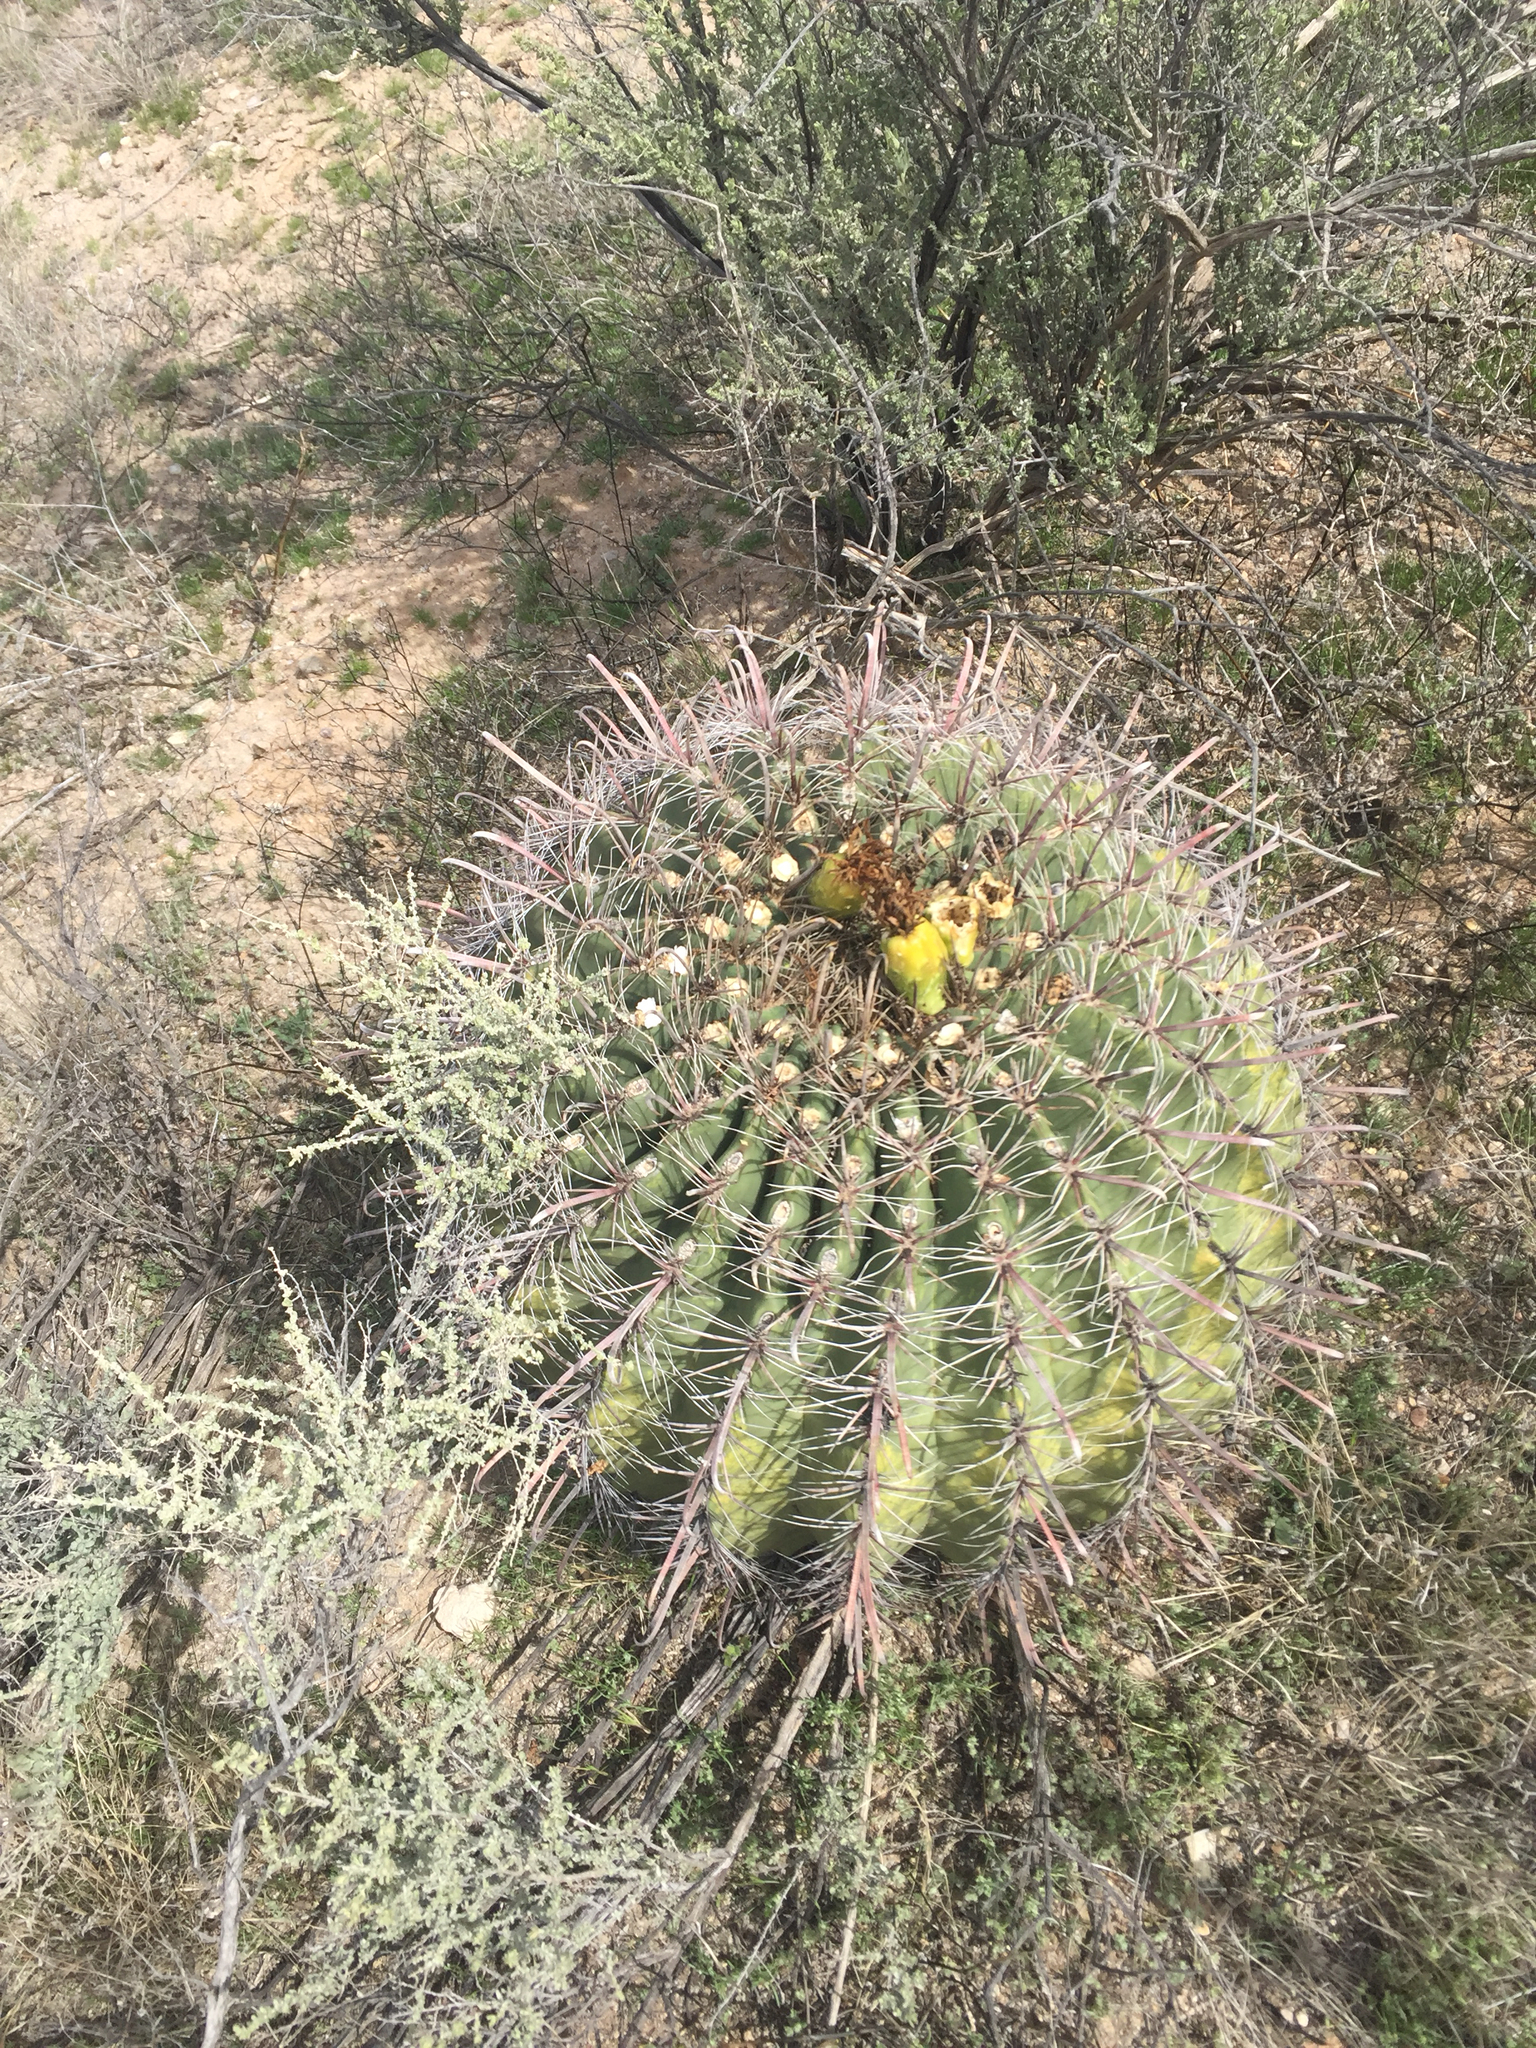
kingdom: Plantae
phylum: Tracheophyta
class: Magnoliopsida
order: Caryophyllales
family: Cactaceae
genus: Ferocactus
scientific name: Ferocactus wislizeni
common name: Candy barrel cactus
